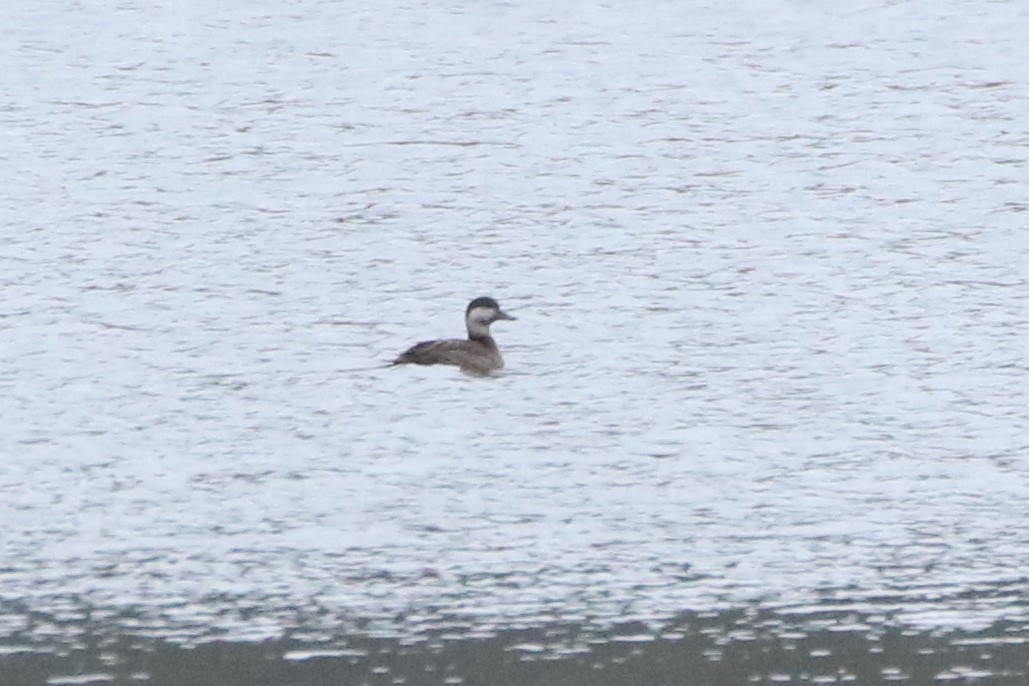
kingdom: Animalia
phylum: Chordata
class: Aves
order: Anseriformes
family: Anatidae
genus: Melanitta
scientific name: Melanitta americana
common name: Black scoter
